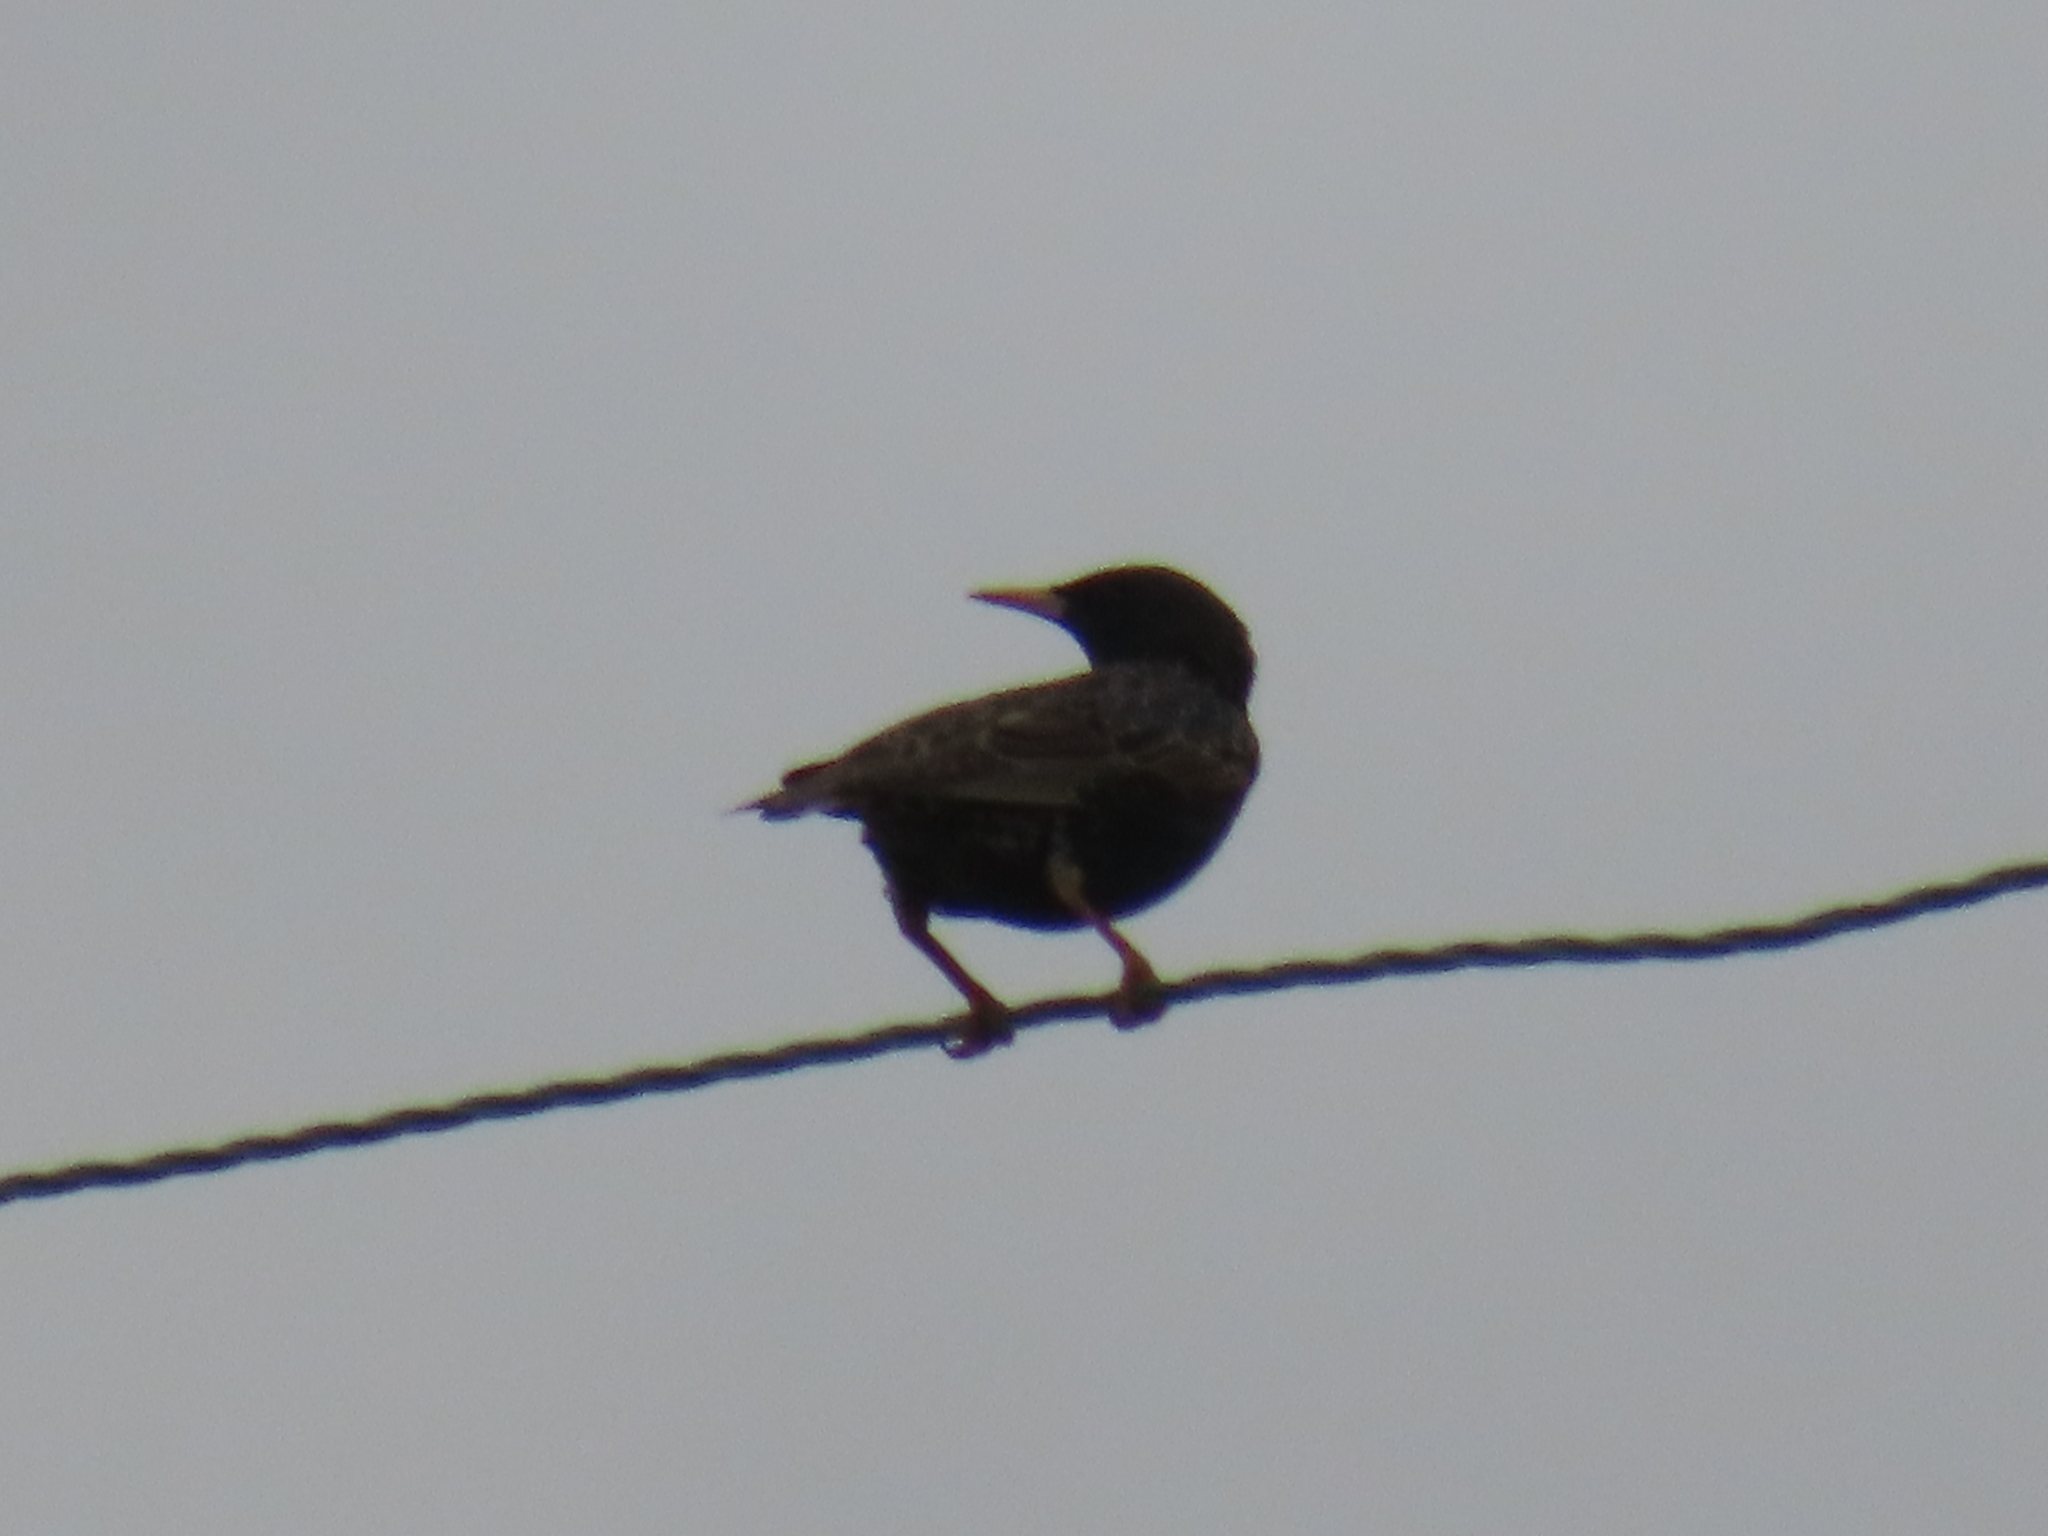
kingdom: Animalia
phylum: Chordata
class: Aves
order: Passeriformes
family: Sturnidae
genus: Sturnus
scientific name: Sturnus vulgaris
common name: Common starling
